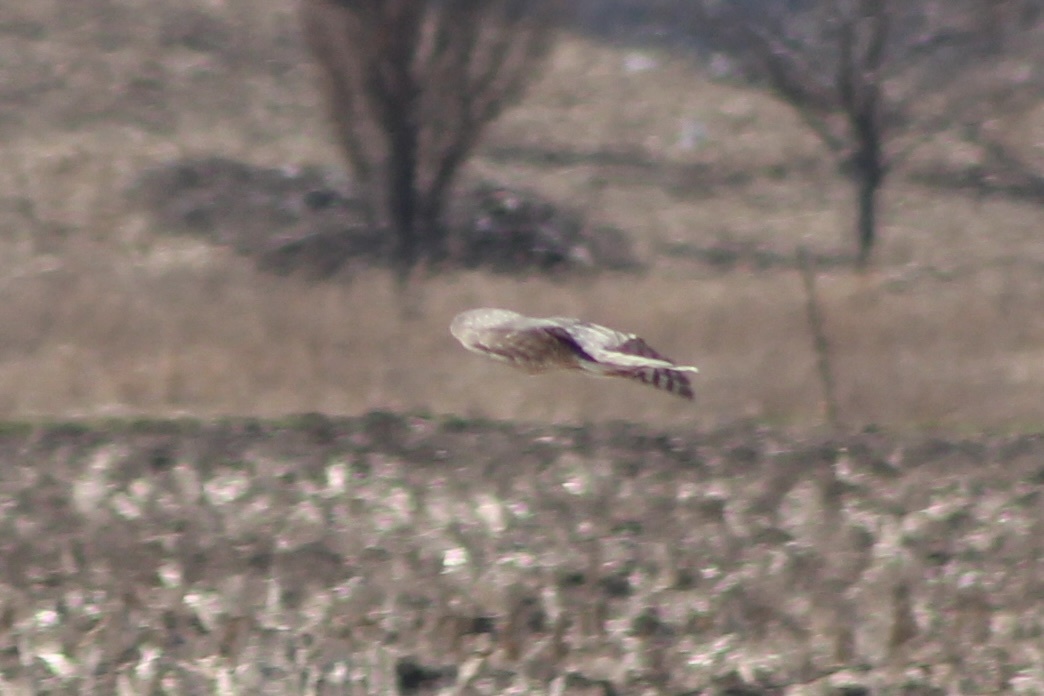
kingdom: Animalia
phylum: Chordata
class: Aves
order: Accipitriformes
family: Accipitridae
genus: Accipiter
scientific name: Accipiter cooperii
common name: Cooper's hawk
